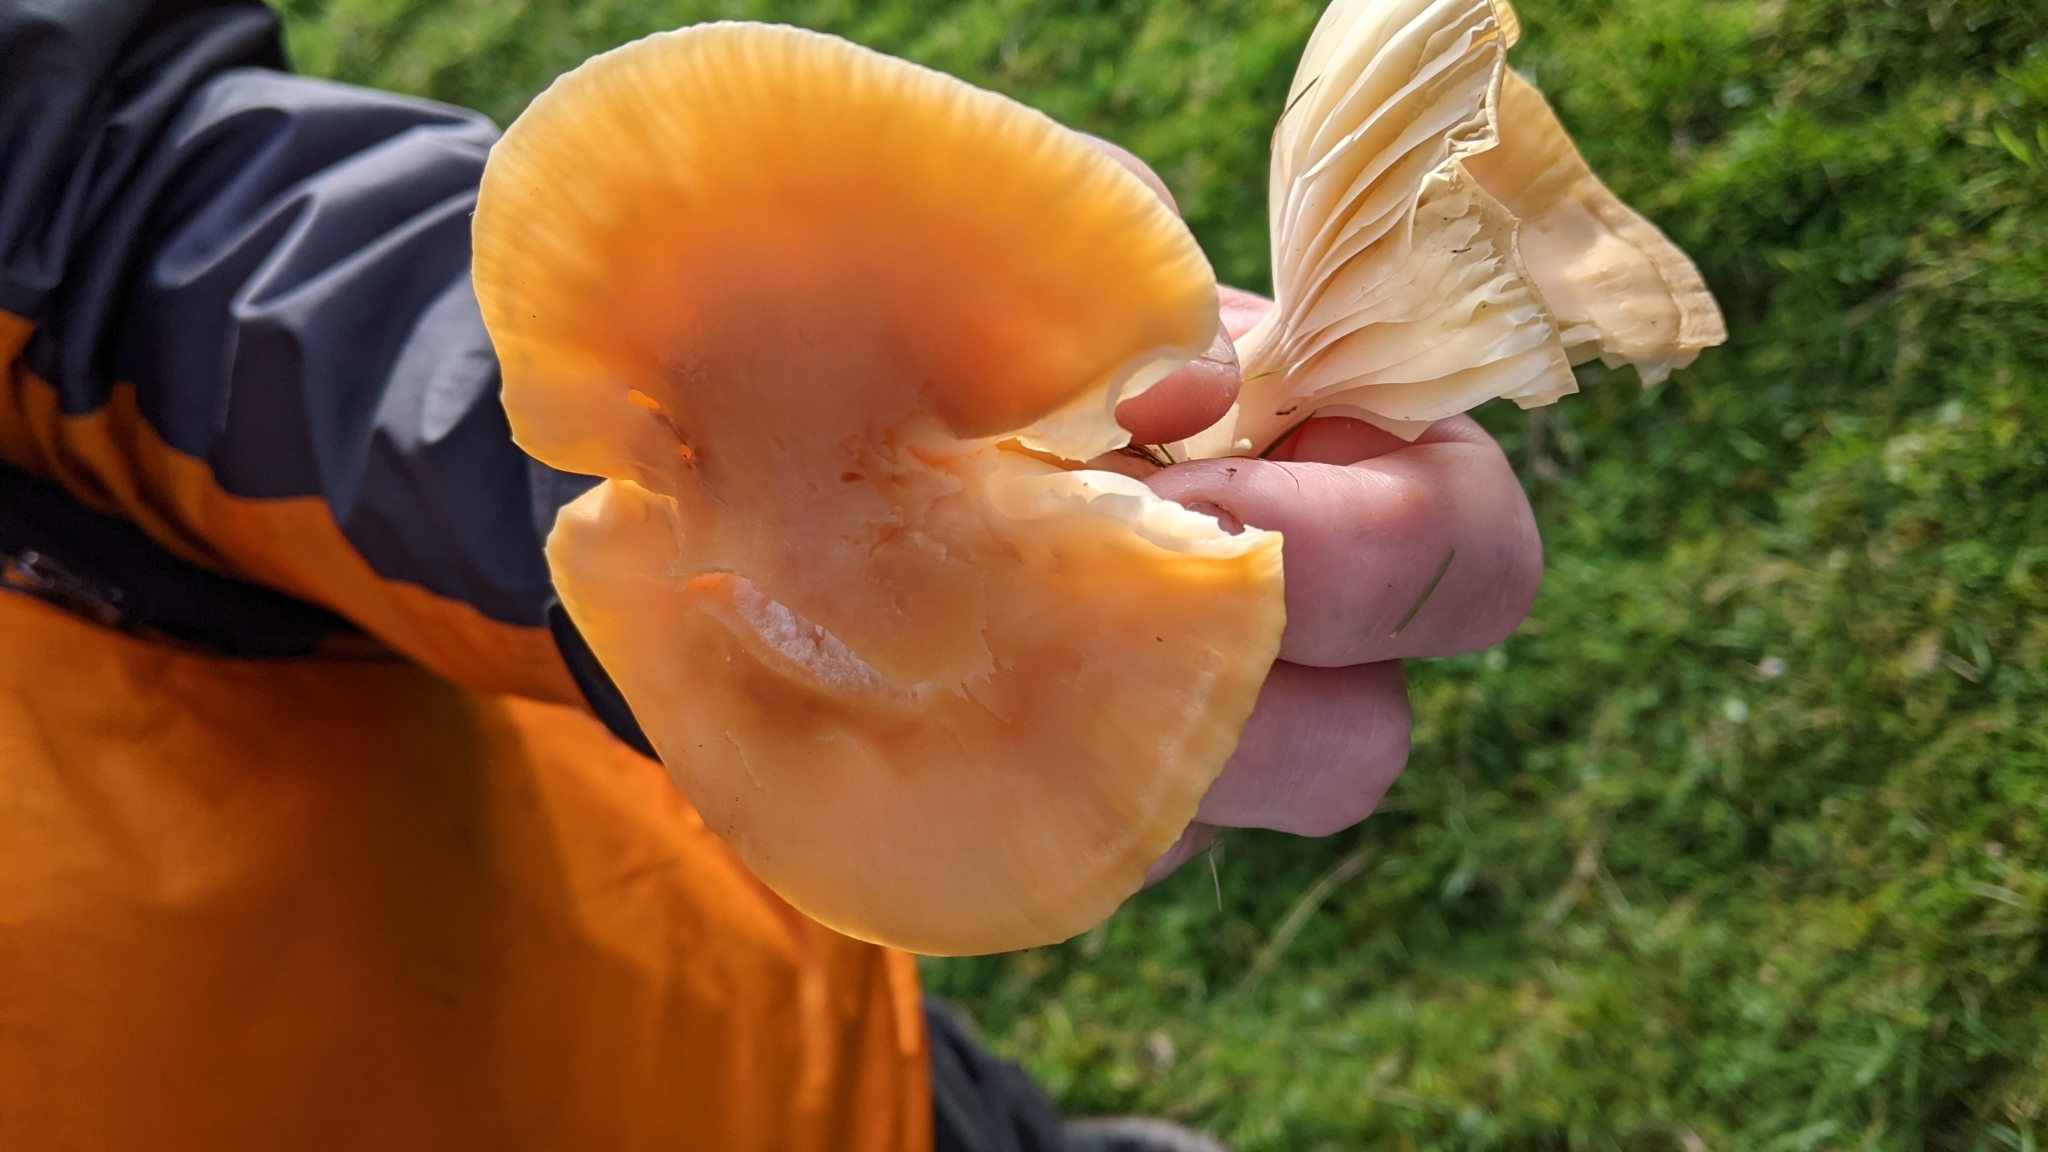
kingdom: Fungi
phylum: Basidiomycota
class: Agaricomycetes
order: Agaricales
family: Hygrophoraceae
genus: Cuphophyllus
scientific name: Cuphophyllus pratensis
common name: Meadow waxcap
